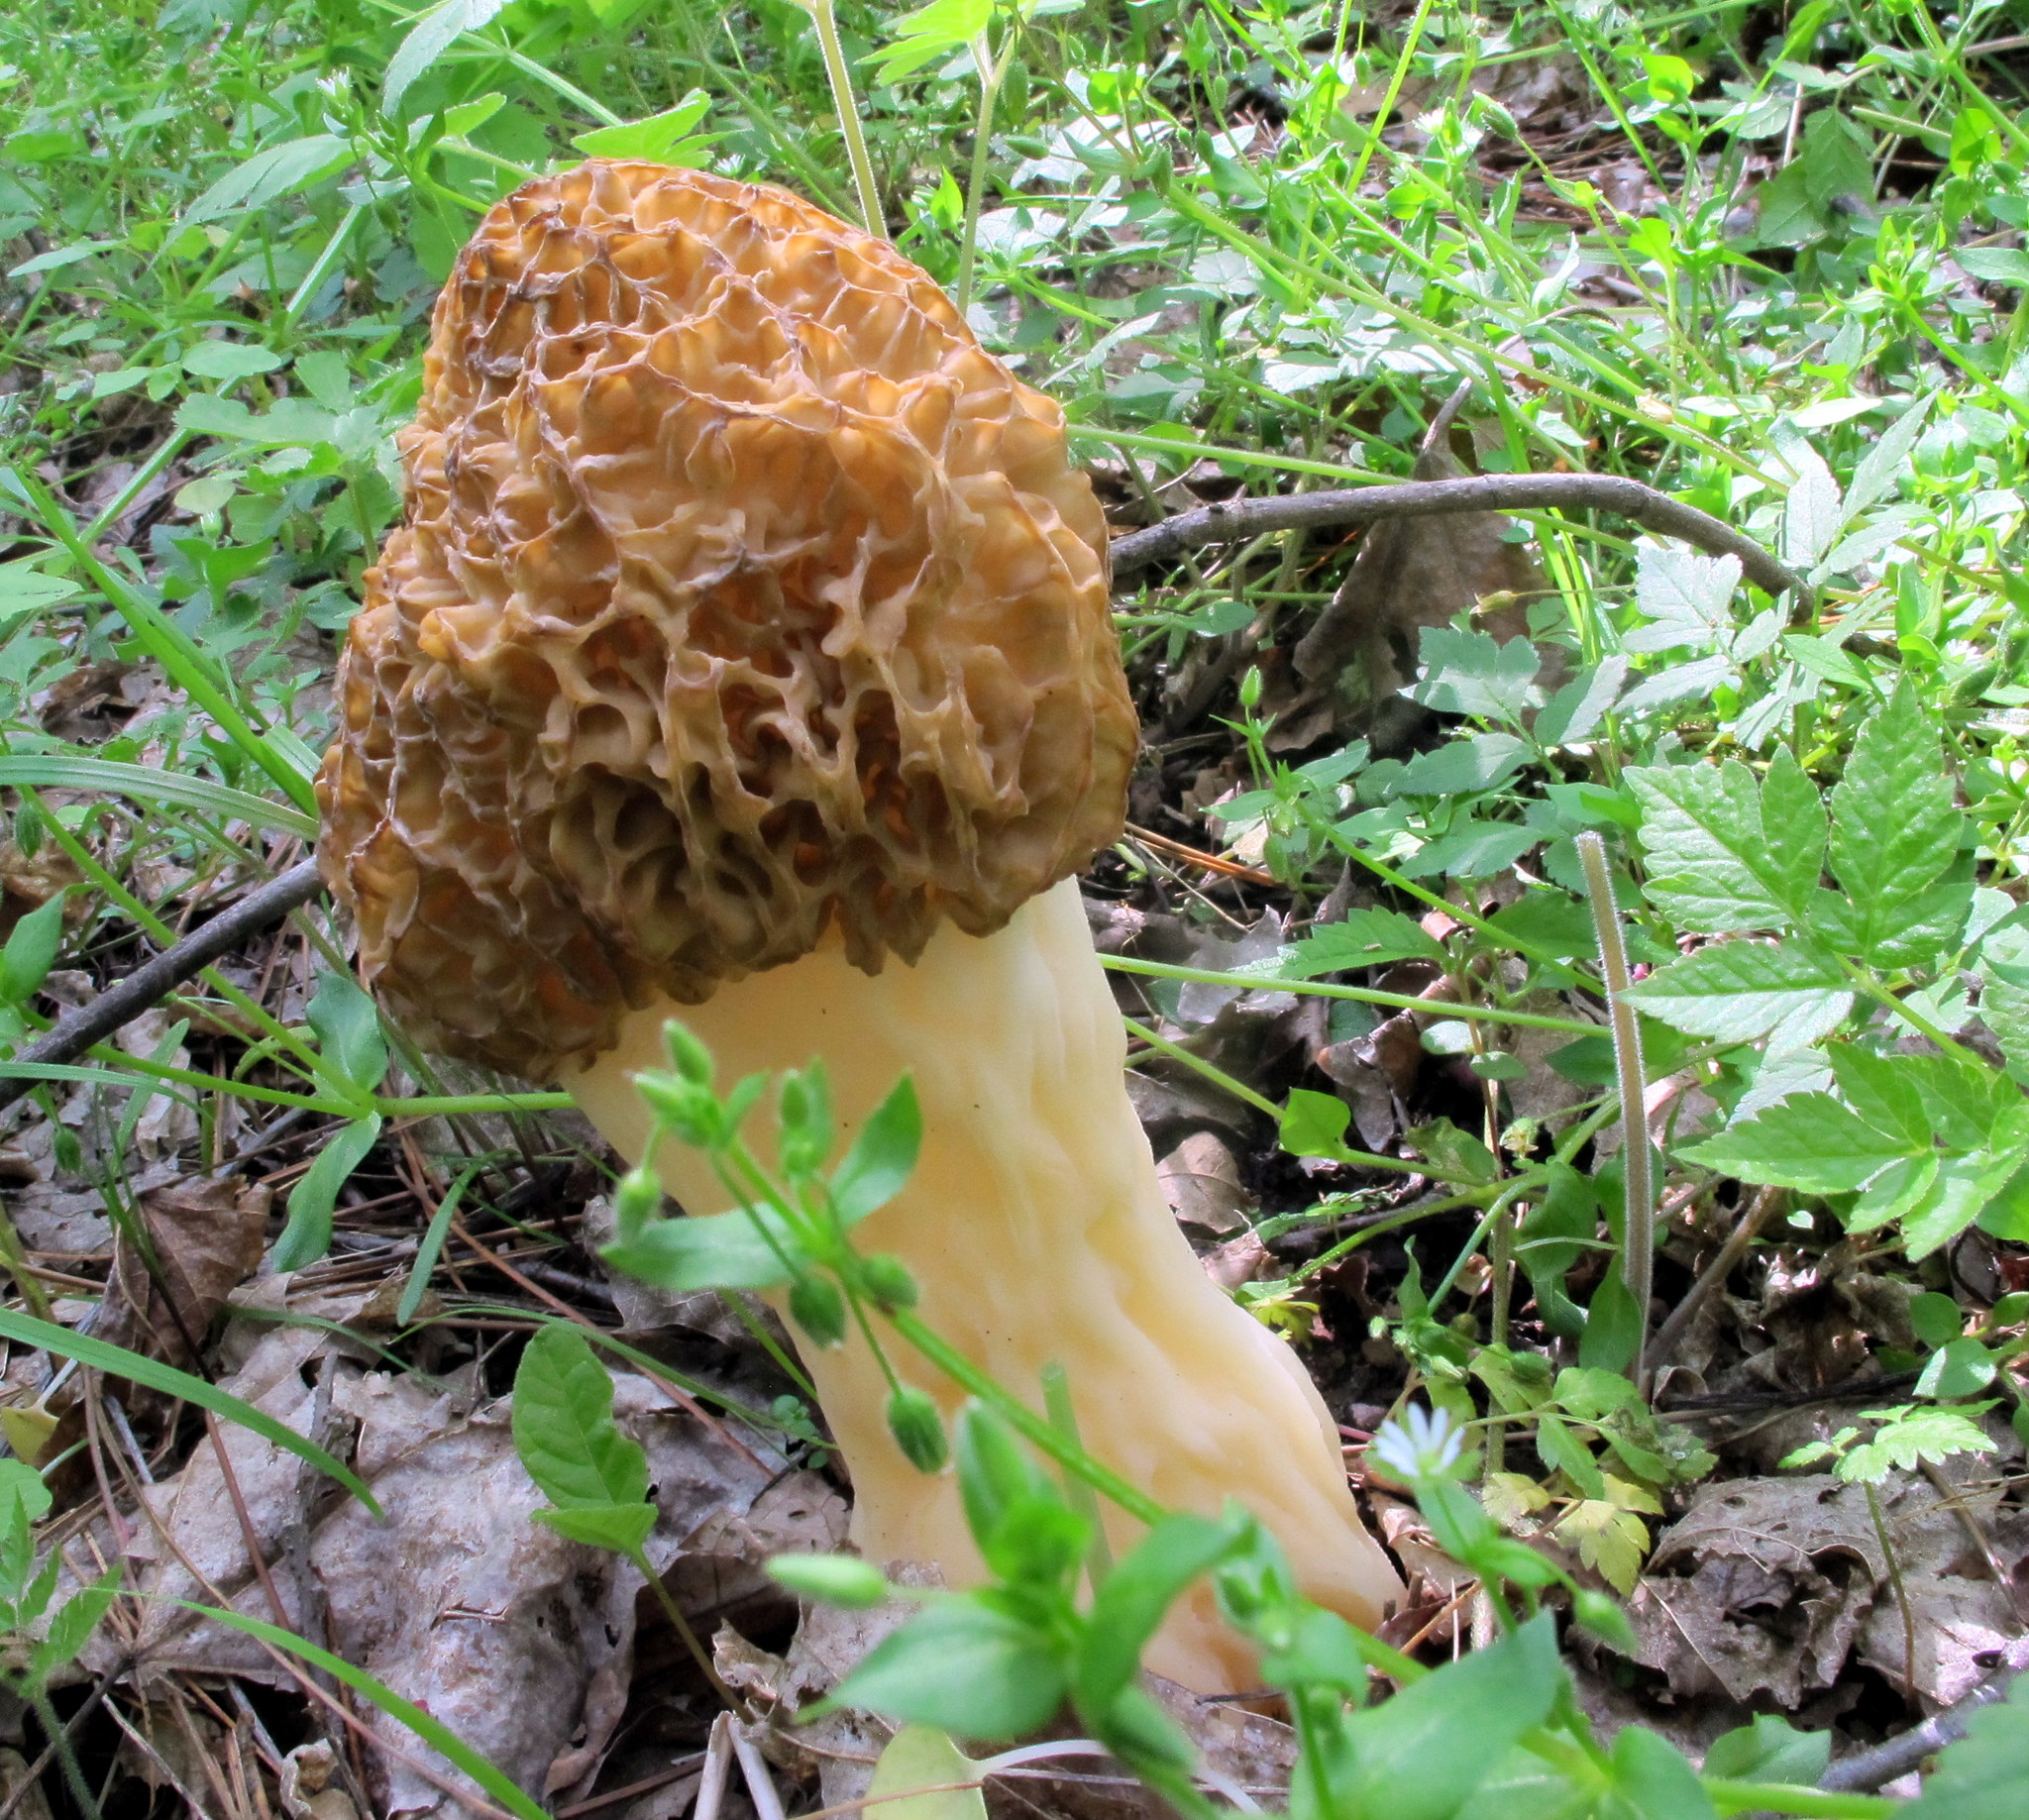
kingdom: Fungi
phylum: Ascomycota
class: Pezizomycetes
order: Pezizales
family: Morchellaceae
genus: Morchella
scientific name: Morchella americana
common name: White morel
